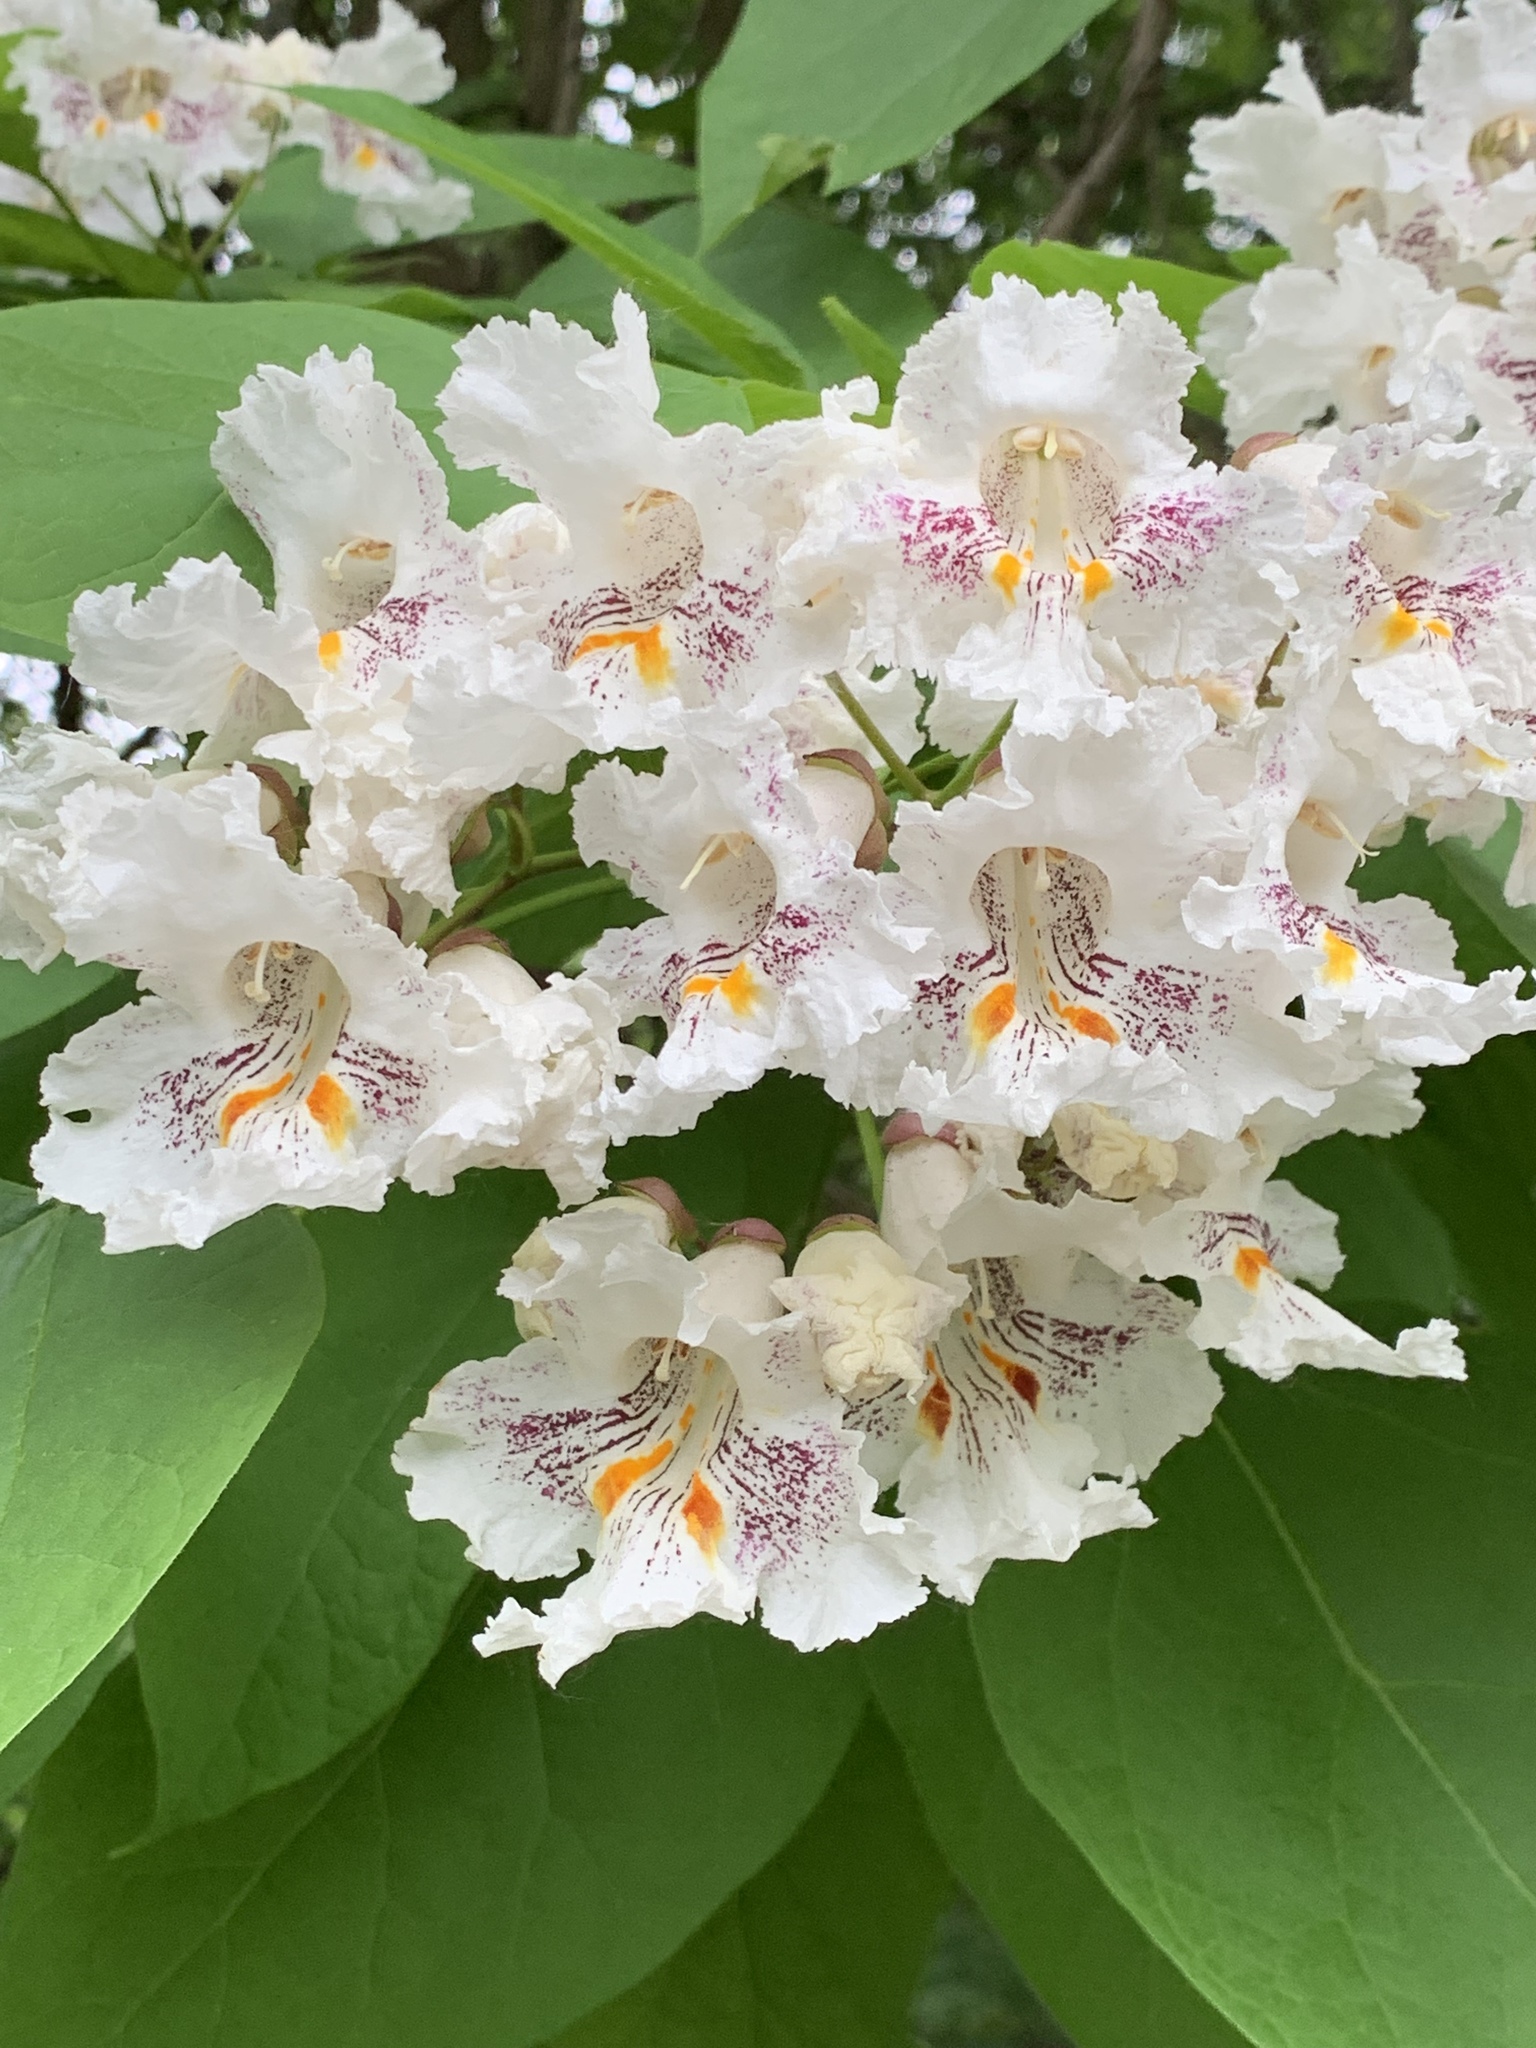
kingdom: Plantae
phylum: Tracheophyta
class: Magnoliopsida
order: Lamiales
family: Bignoniaceae
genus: Catalpa
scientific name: Catalpa speciosa
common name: Northern catalpa
